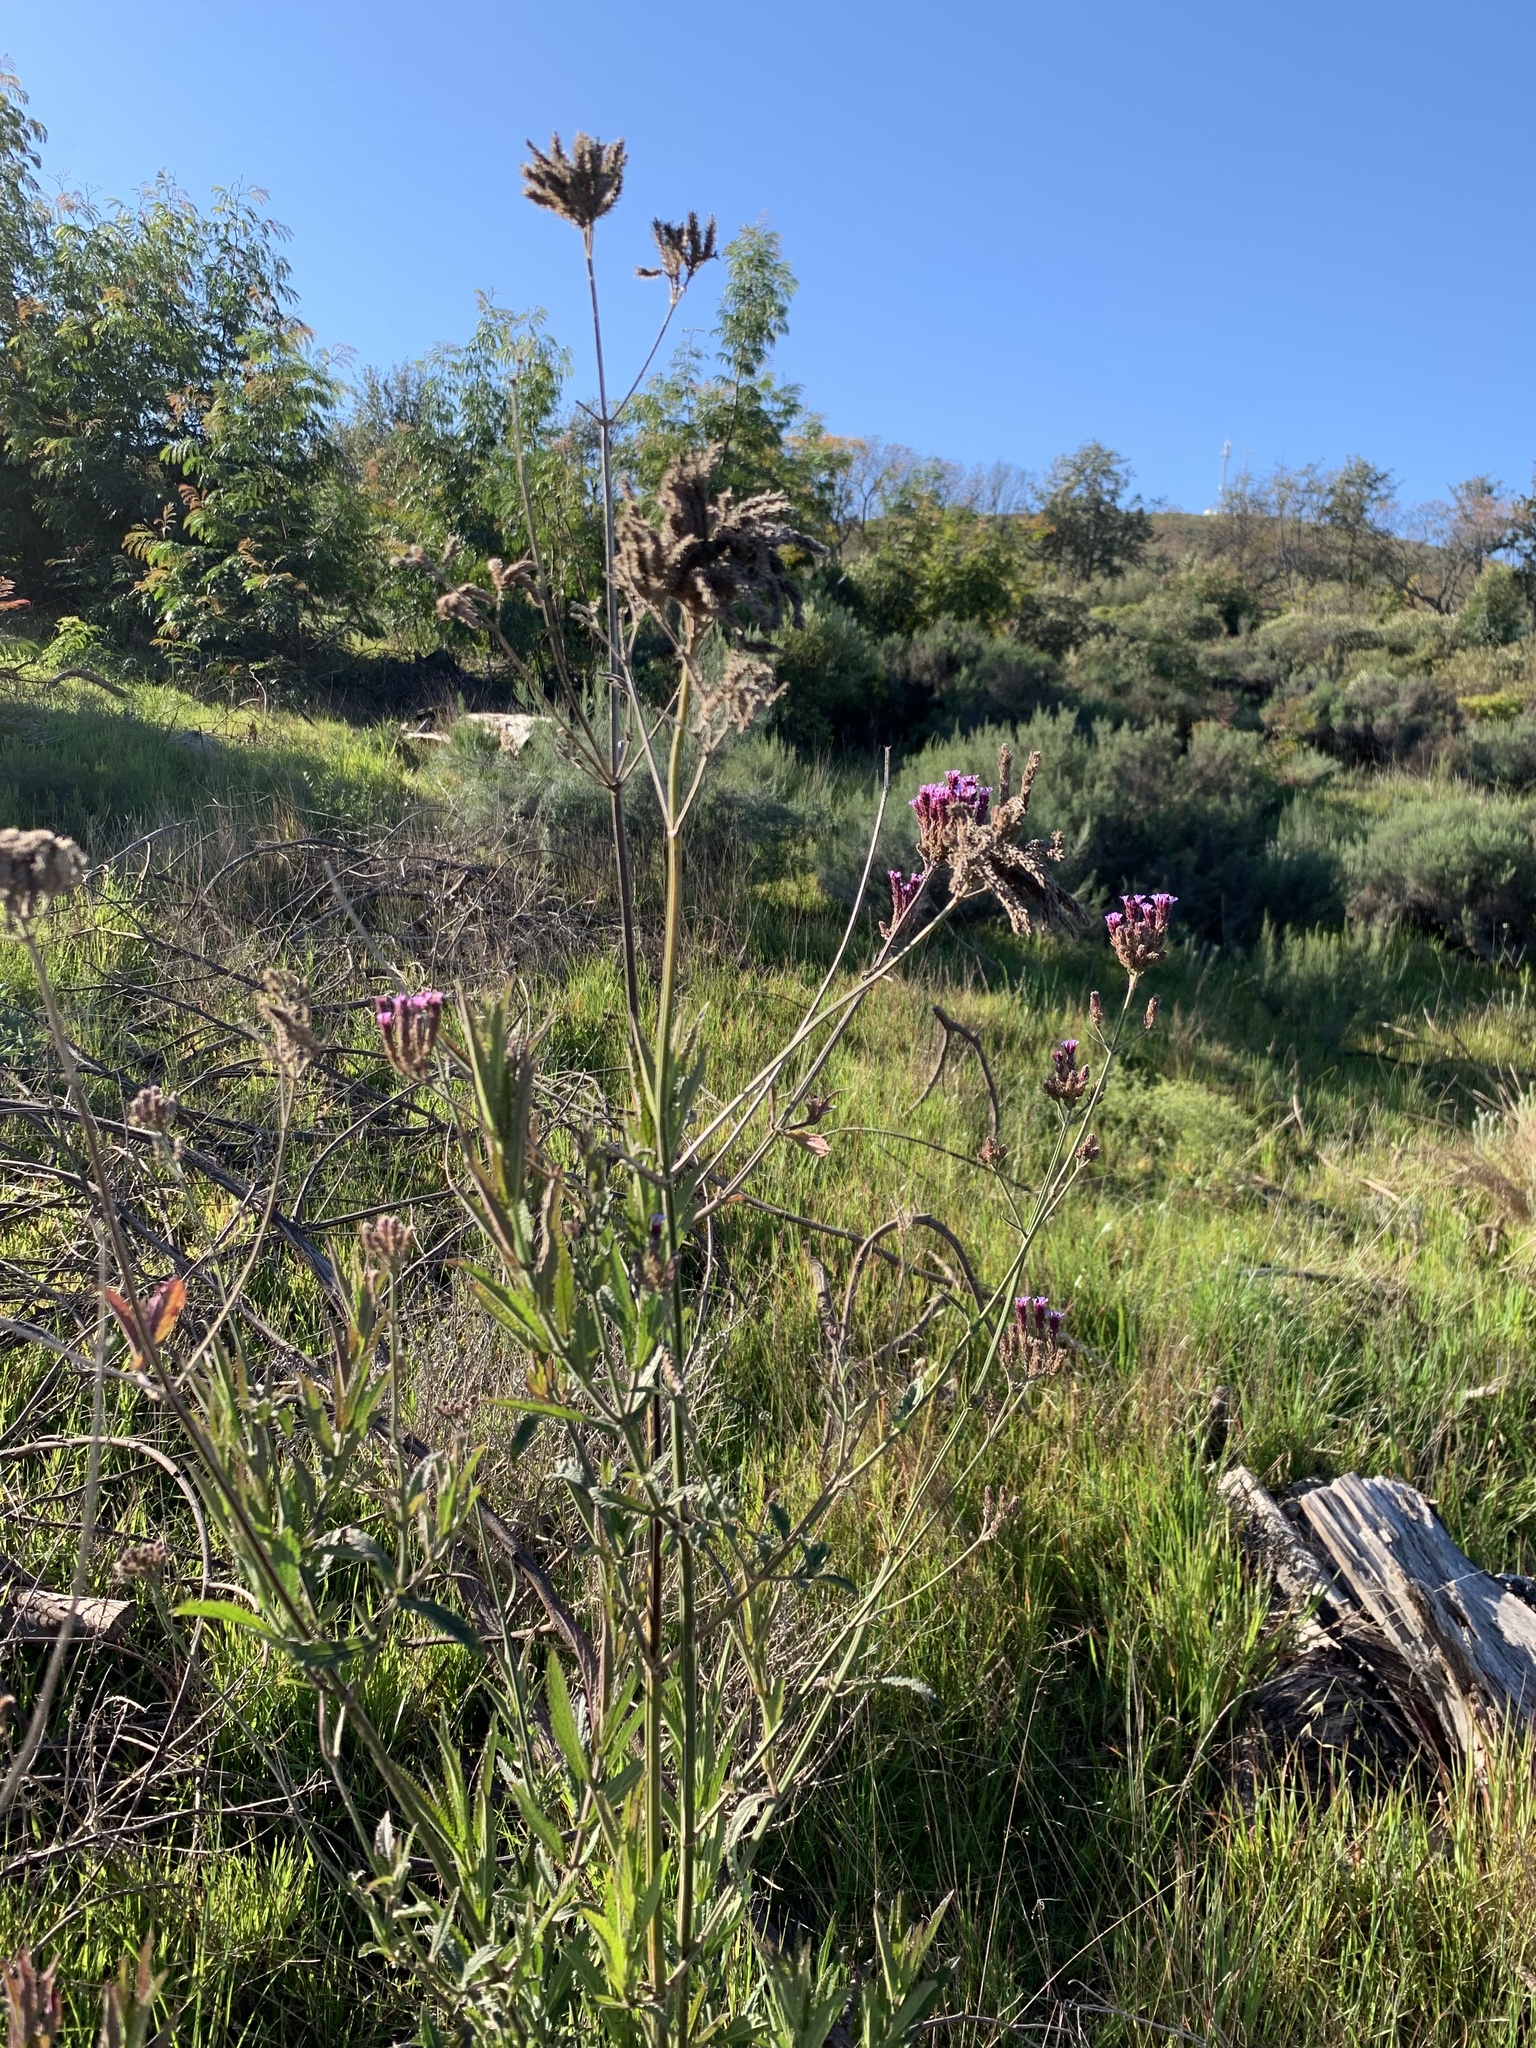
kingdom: Plantae
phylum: Tracheophyta
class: Magnoliopsida
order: Lamiales
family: Verbenaceae
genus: Verbena
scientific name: Verbena bonariensis
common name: Purpletop vervain
